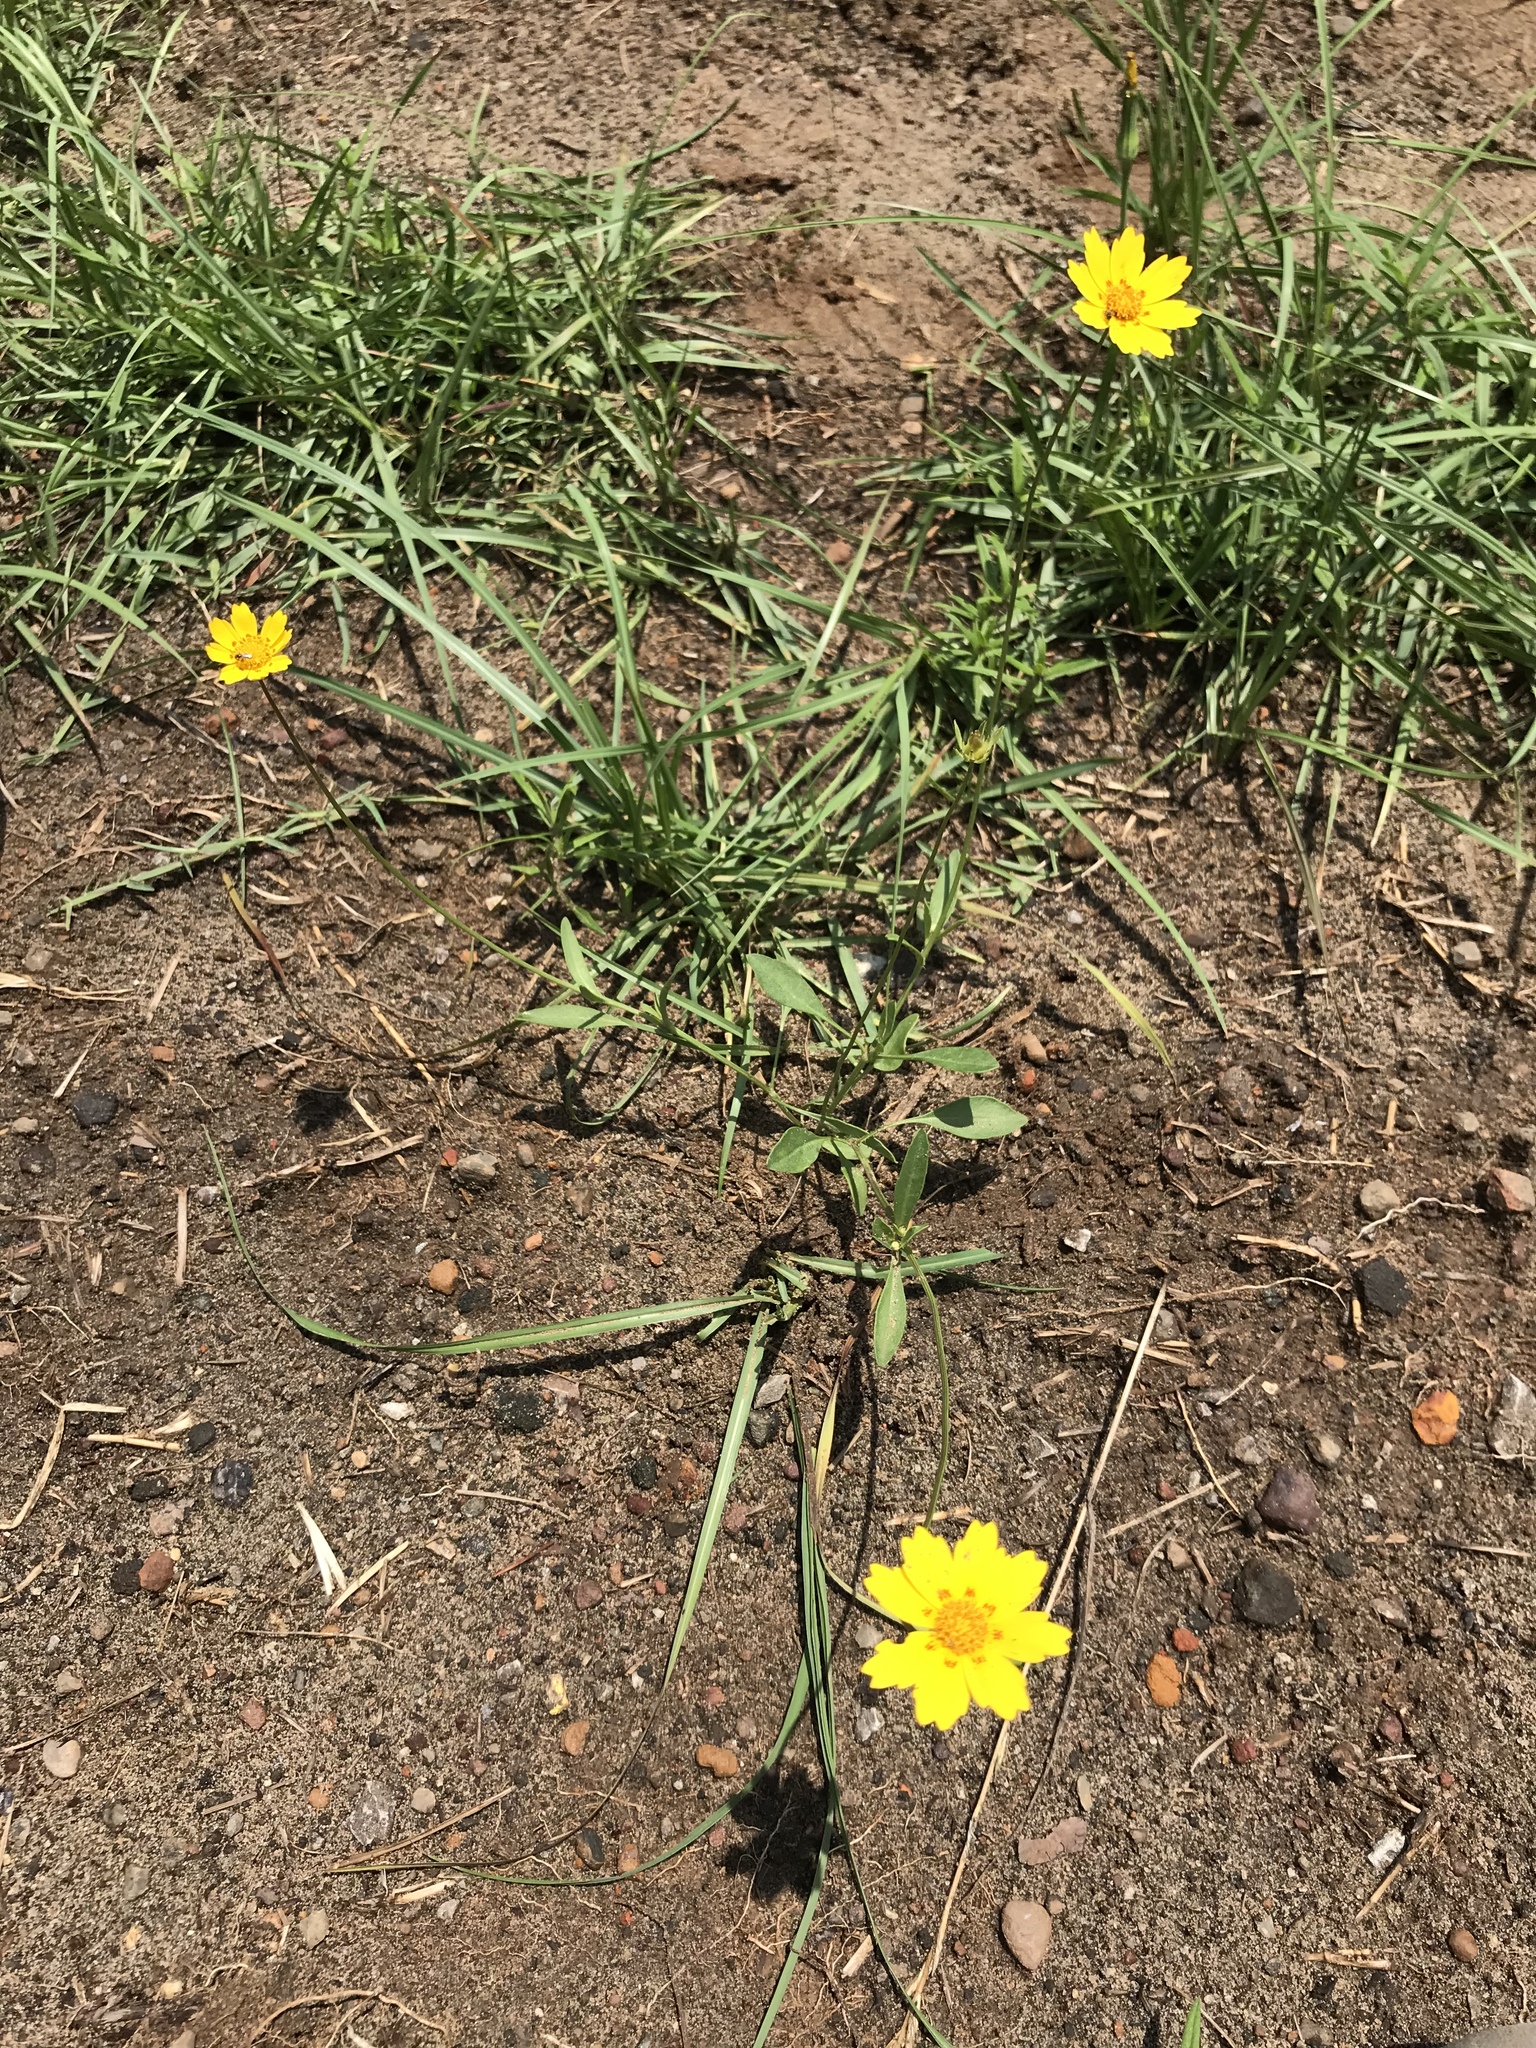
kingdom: Plantae
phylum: Tracheophyta
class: Magnoliopsida
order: Asterales
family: Asteraceae
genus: Coreopsis
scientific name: Coreopsis nuecensis
